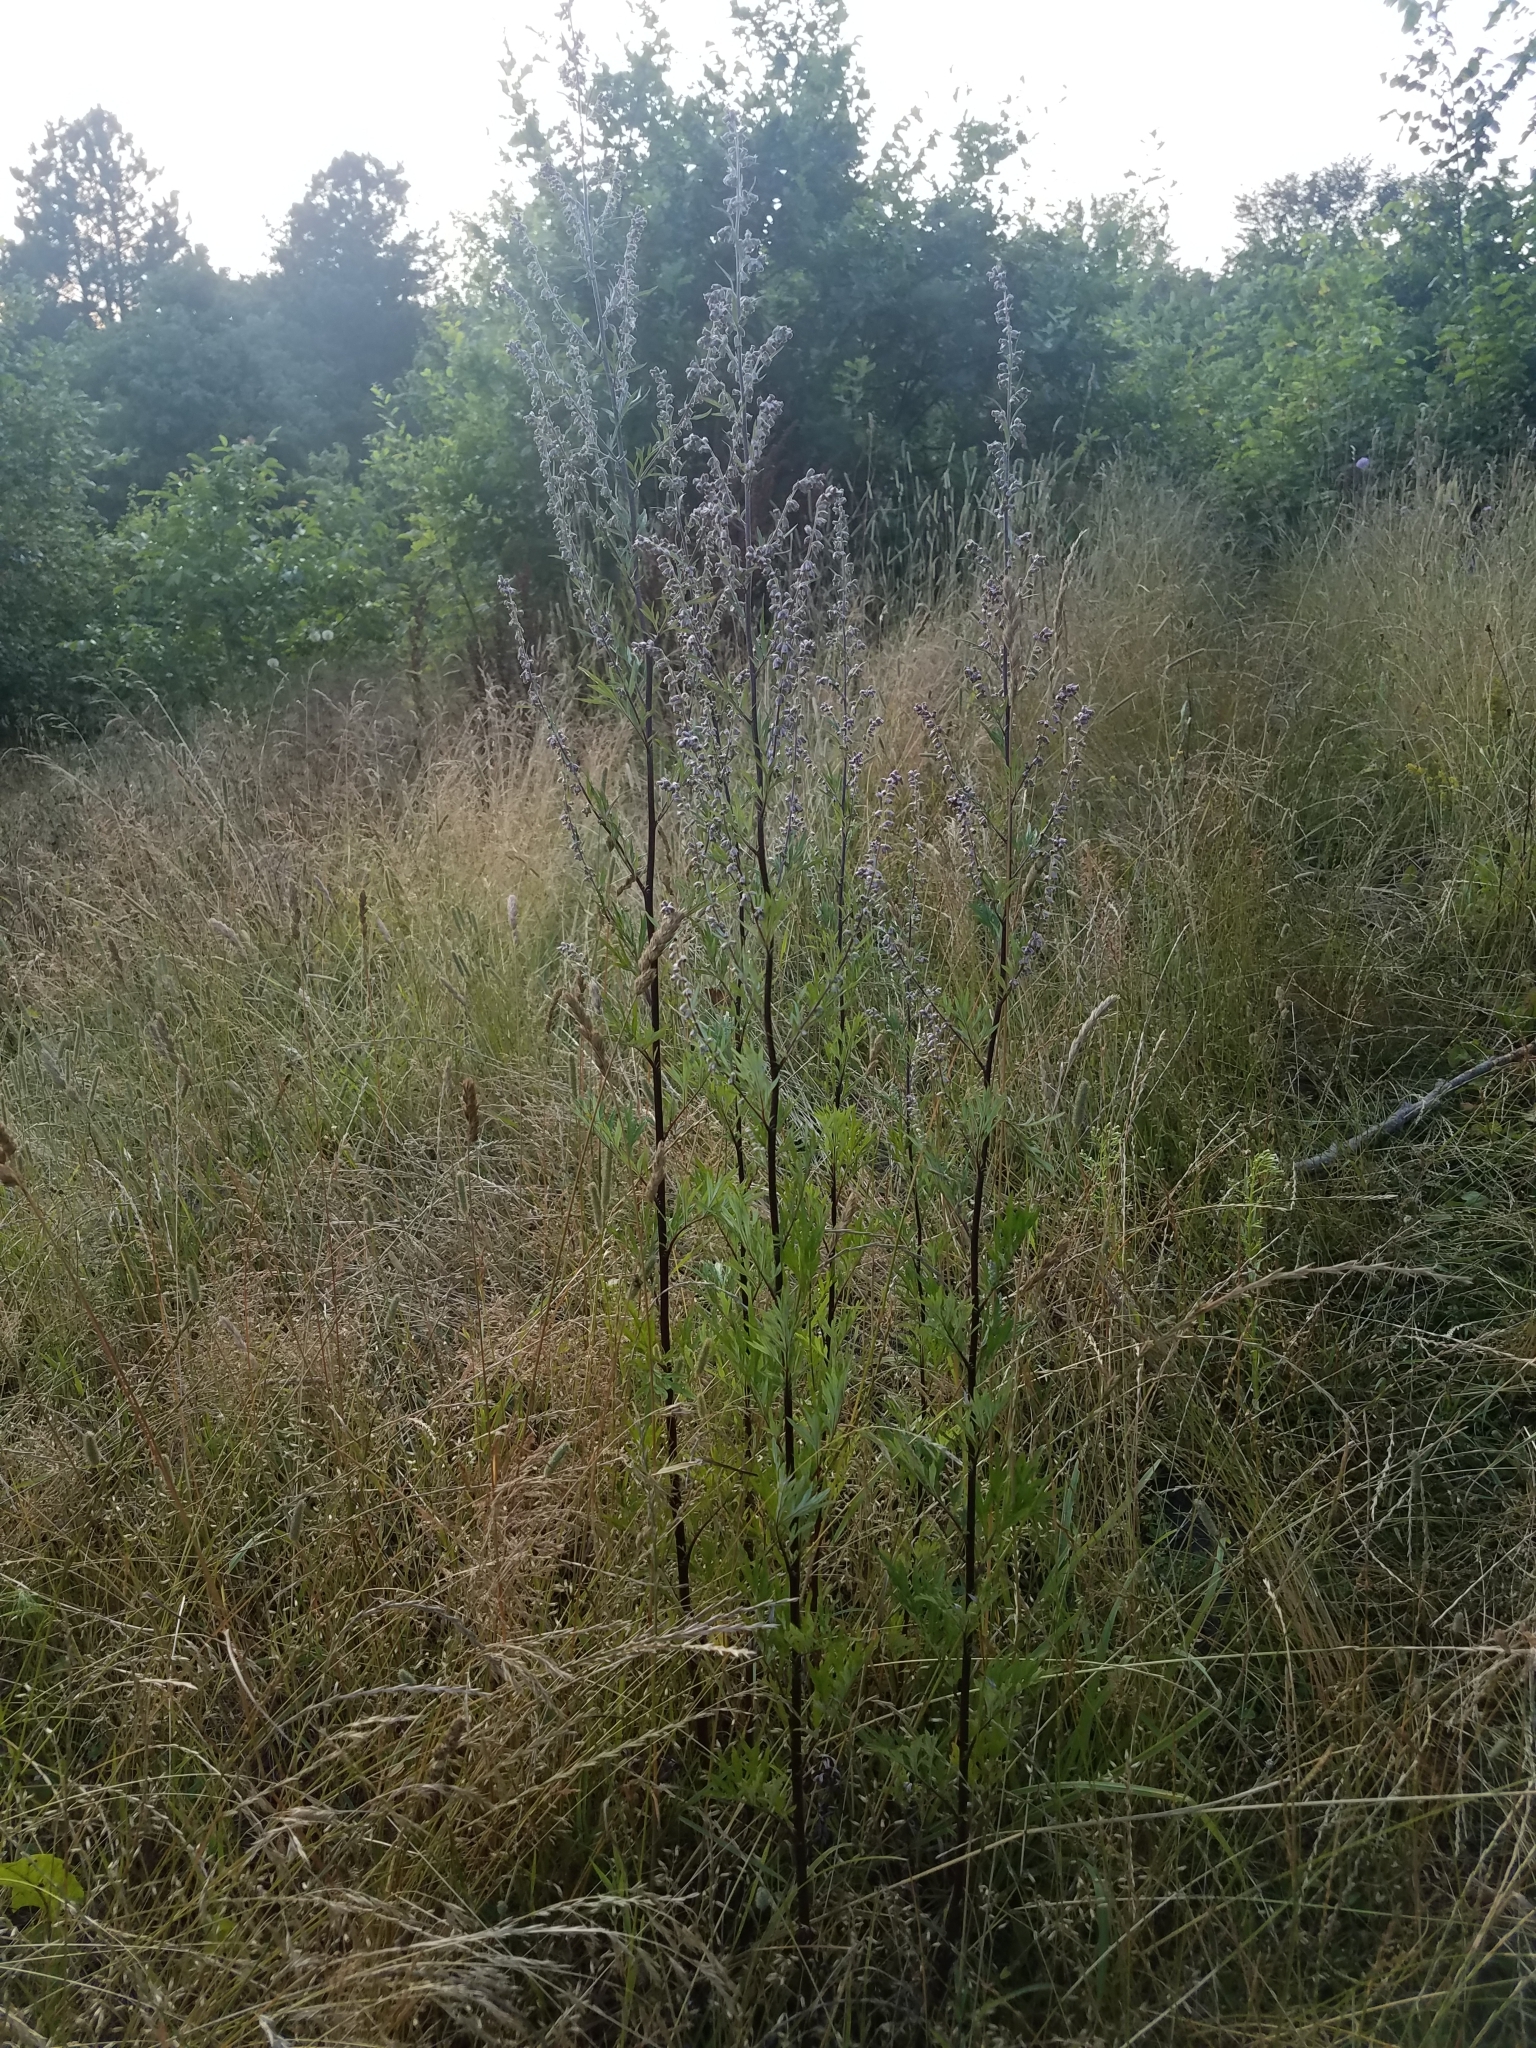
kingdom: Plantae
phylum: Tracheophyta
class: Magnoliopsida
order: Asterales
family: Asteraceae
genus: Artemisia
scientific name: Artemisia vulgaris
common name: Mugwort
